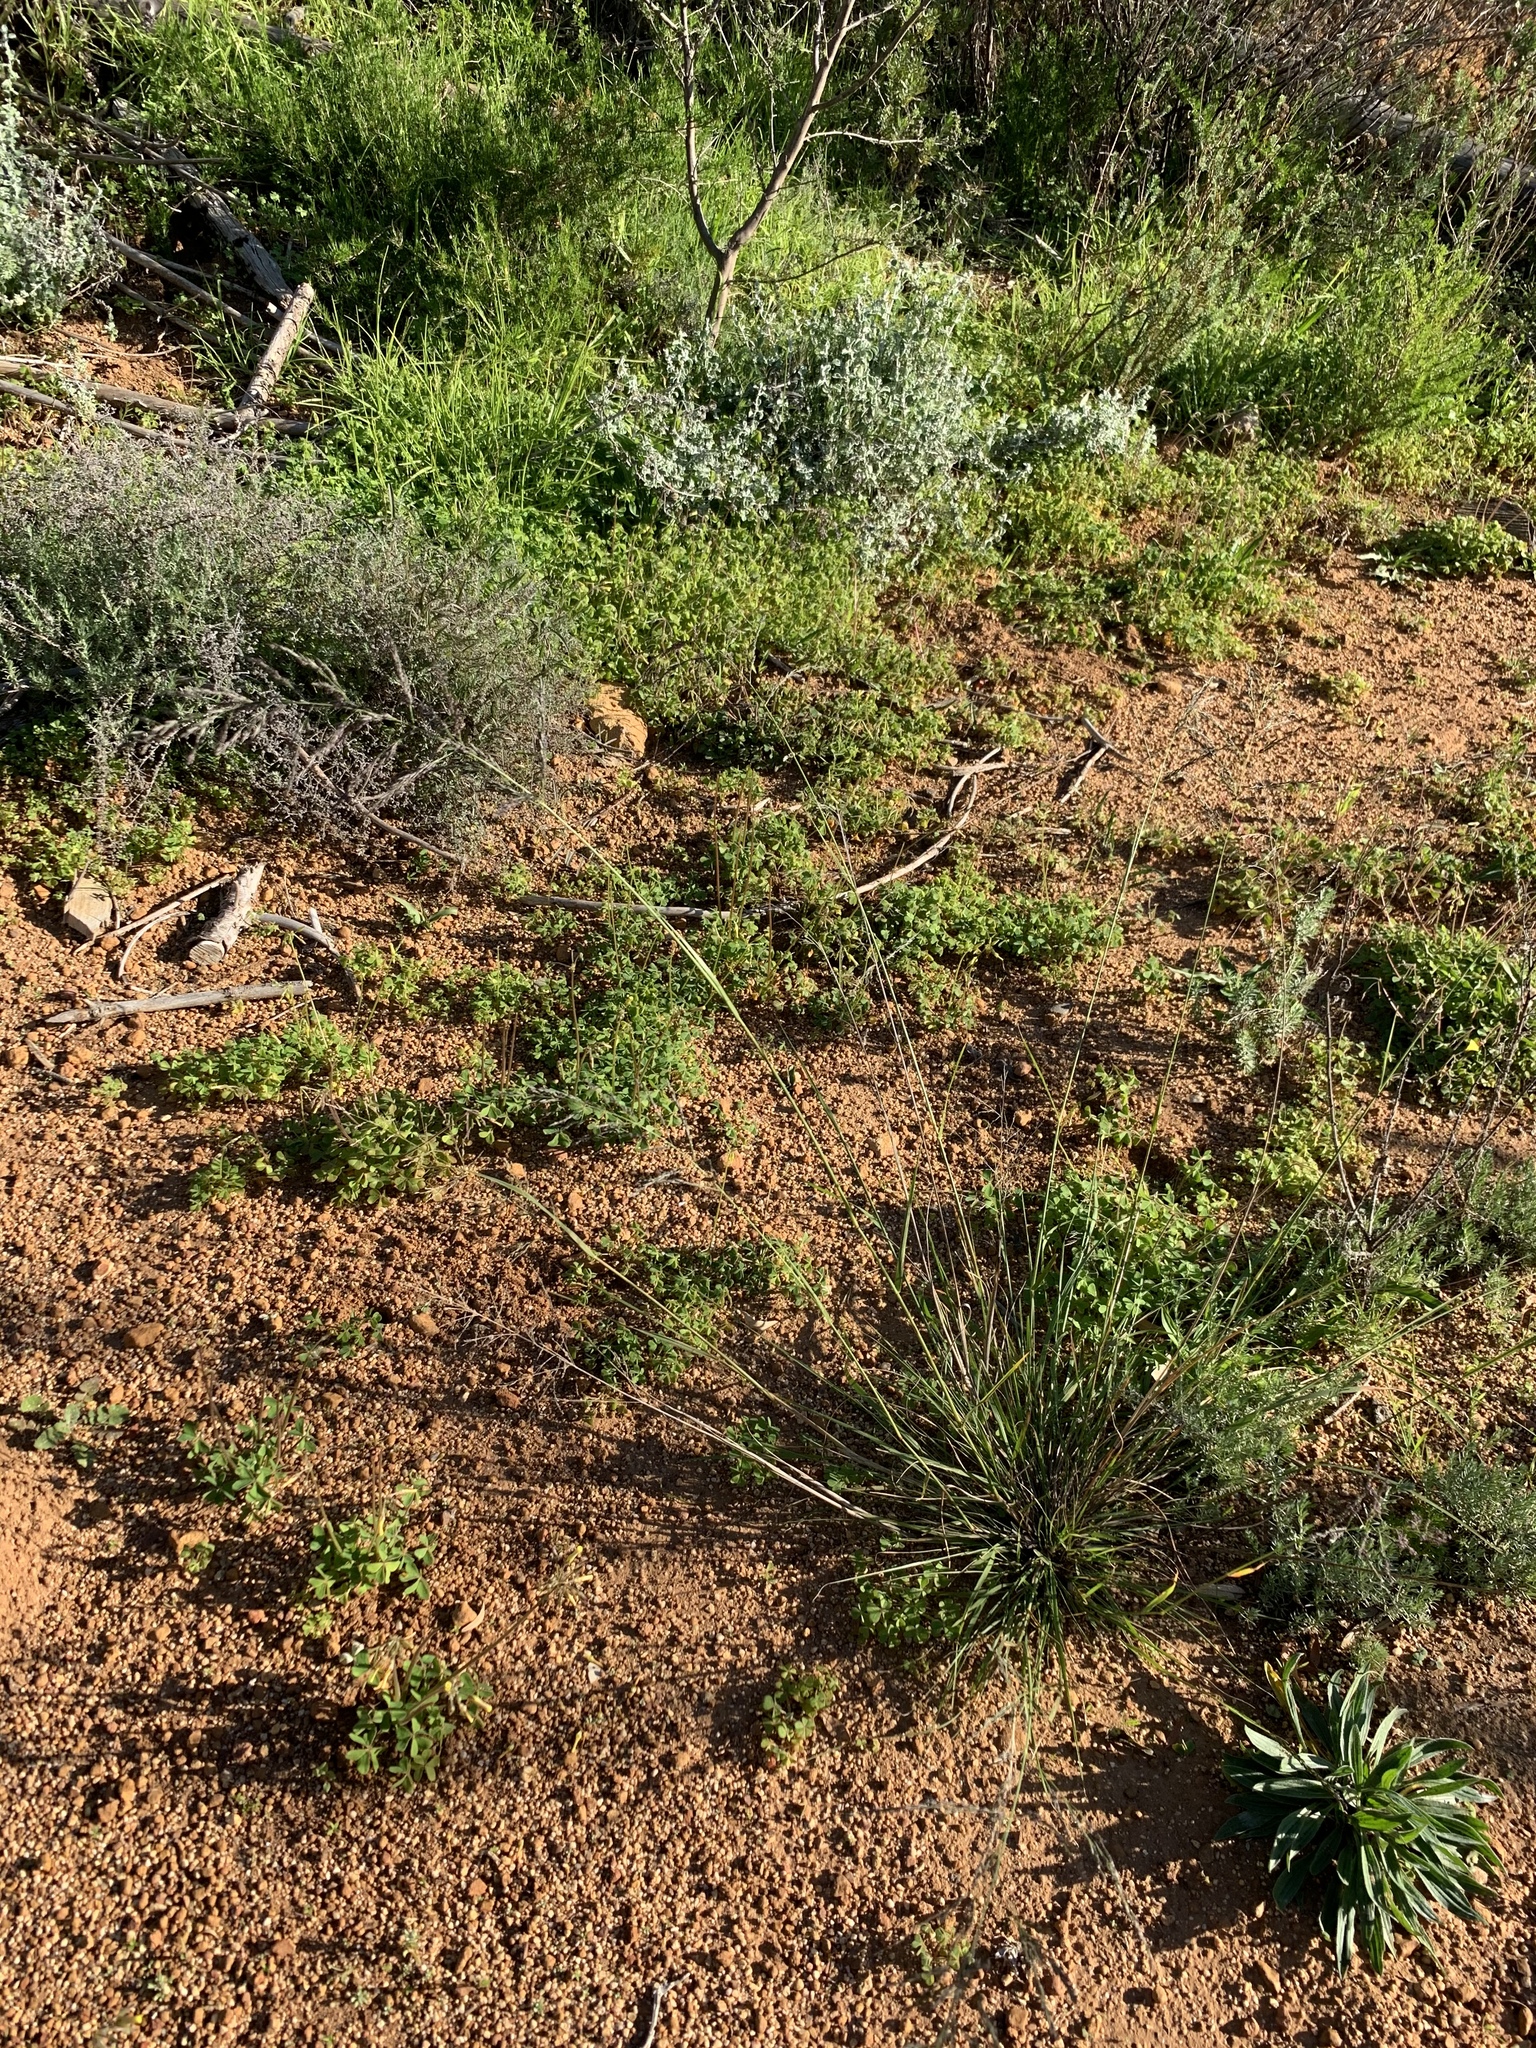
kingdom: Plantae
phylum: Tracheophyta
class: Liliopsida
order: Poales
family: Poaceae
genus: Eragrostis
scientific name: Eragrostis curvula
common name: African love-grass
